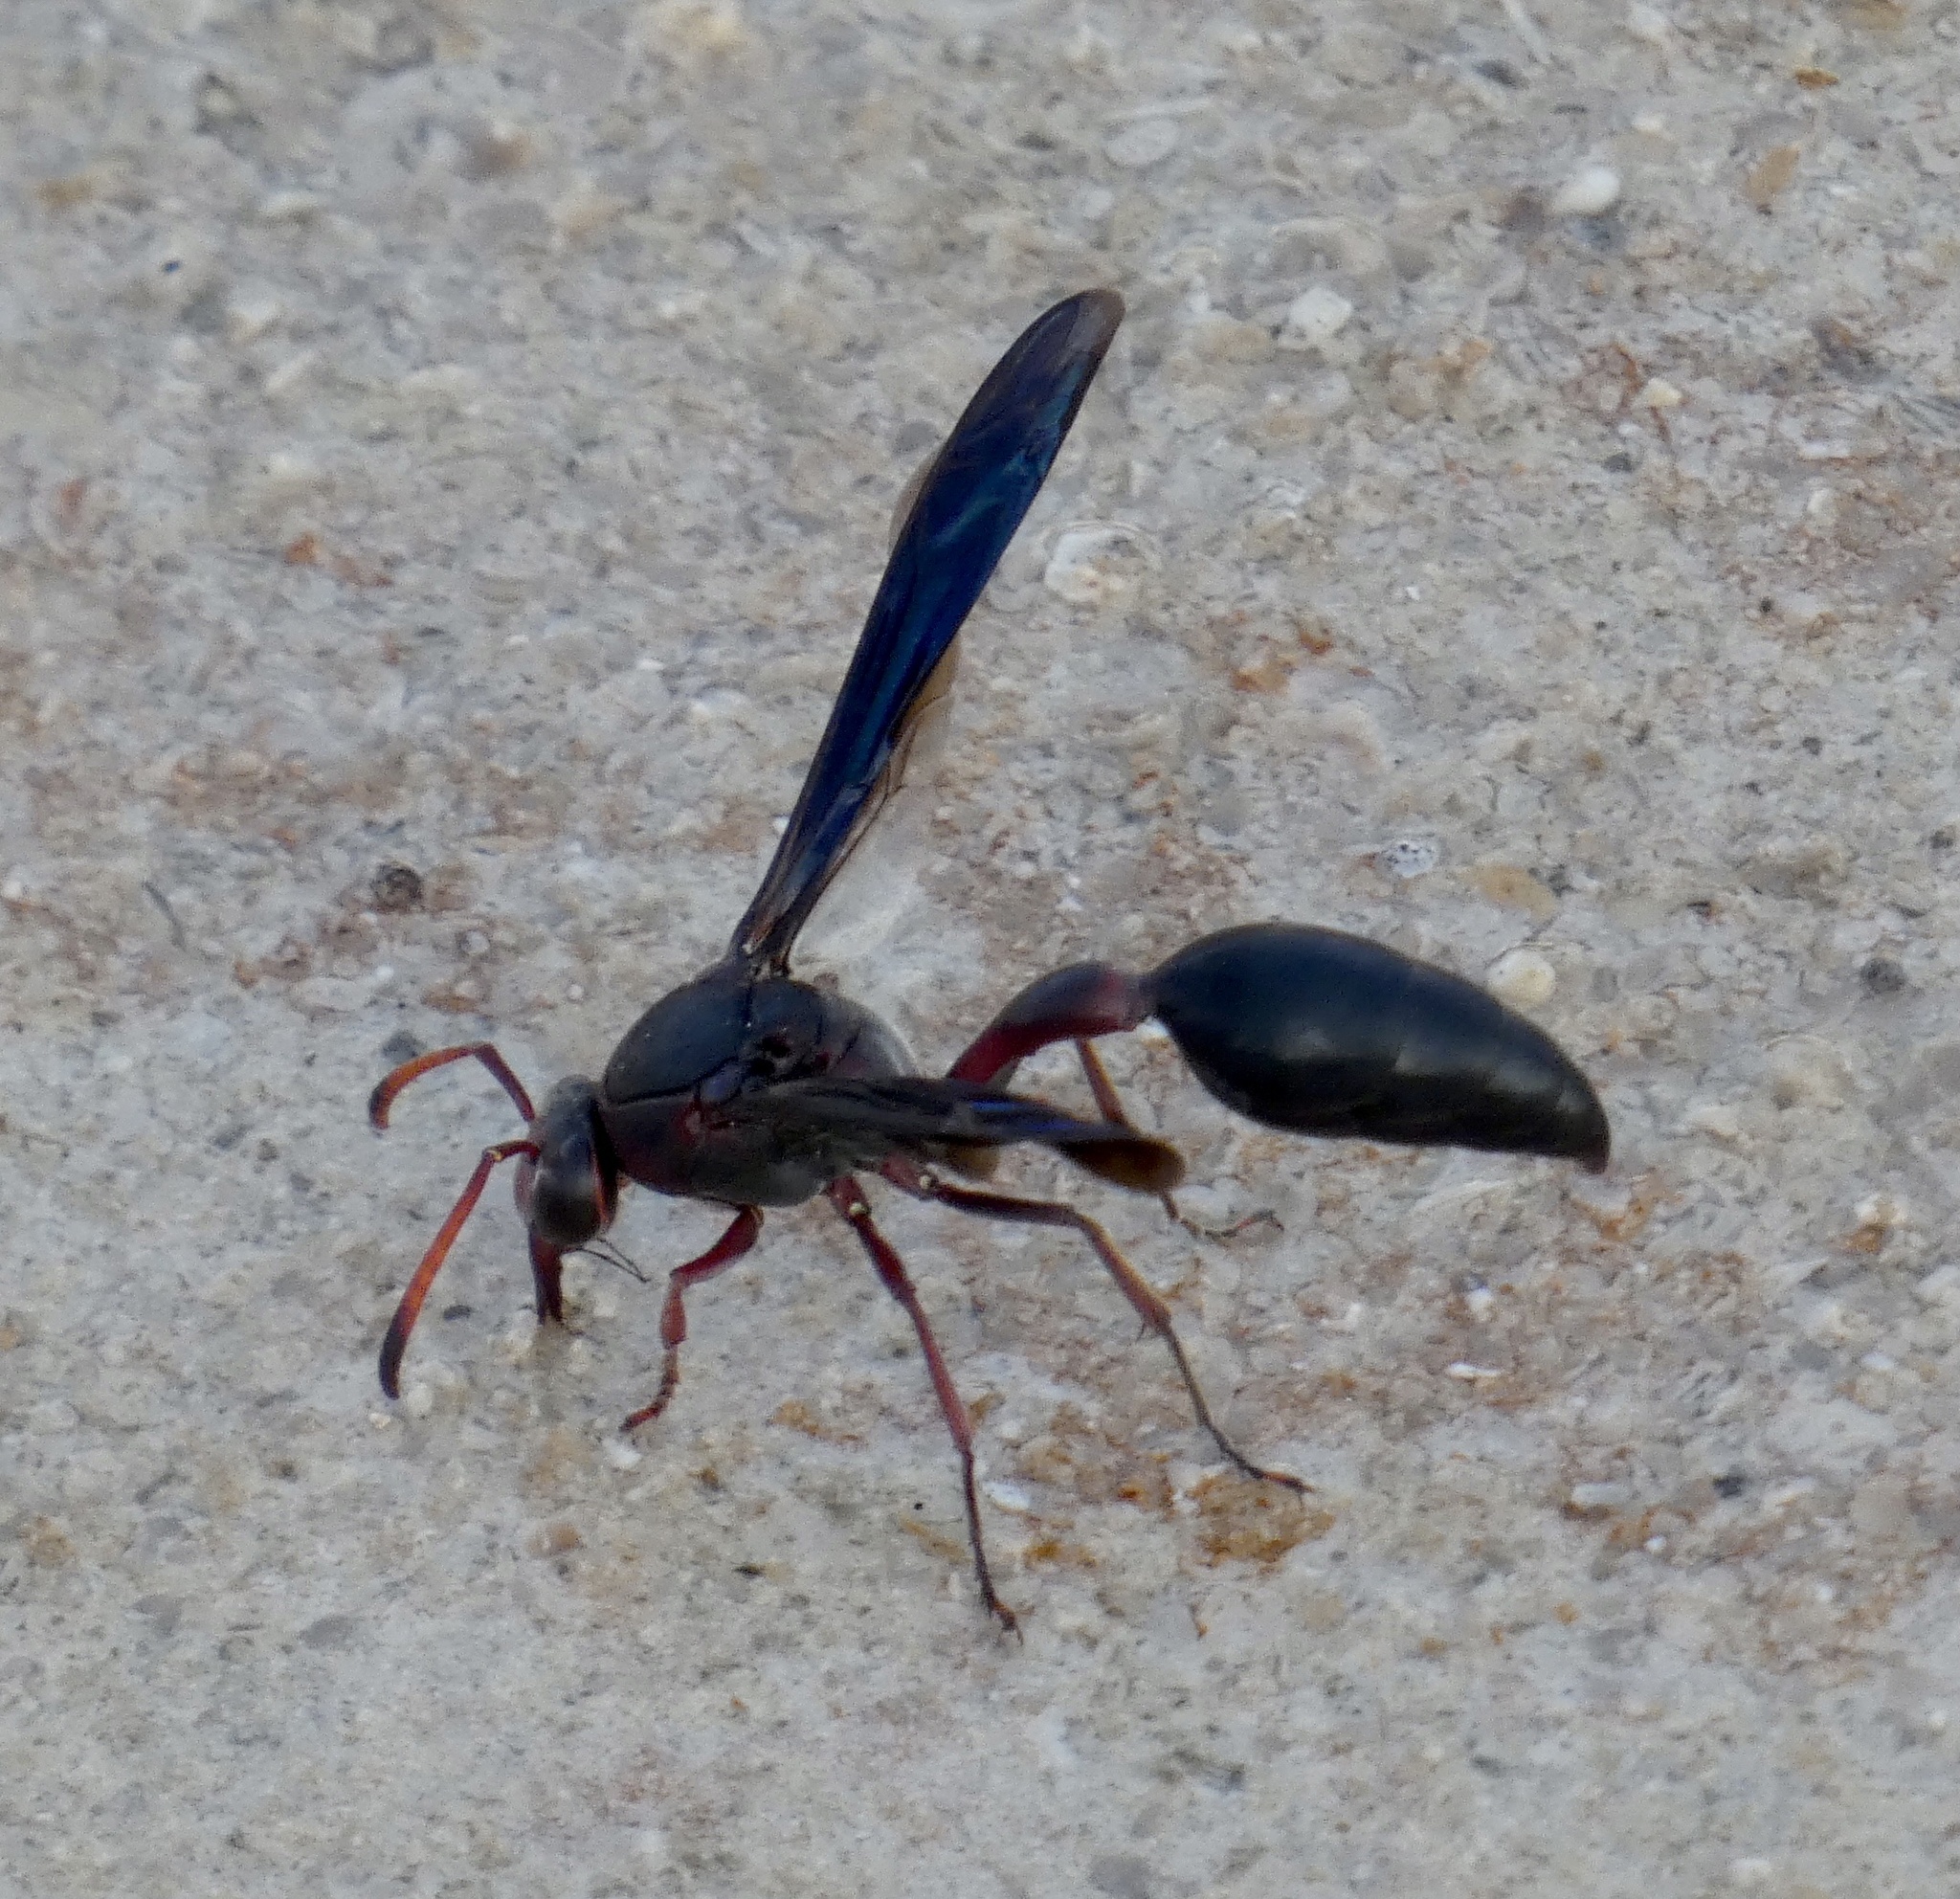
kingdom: Animalia
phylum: Arthropoda
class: Insecta
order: Hymenoptera
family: Eumenidae
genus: Delta
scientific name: Delta emarginatum
